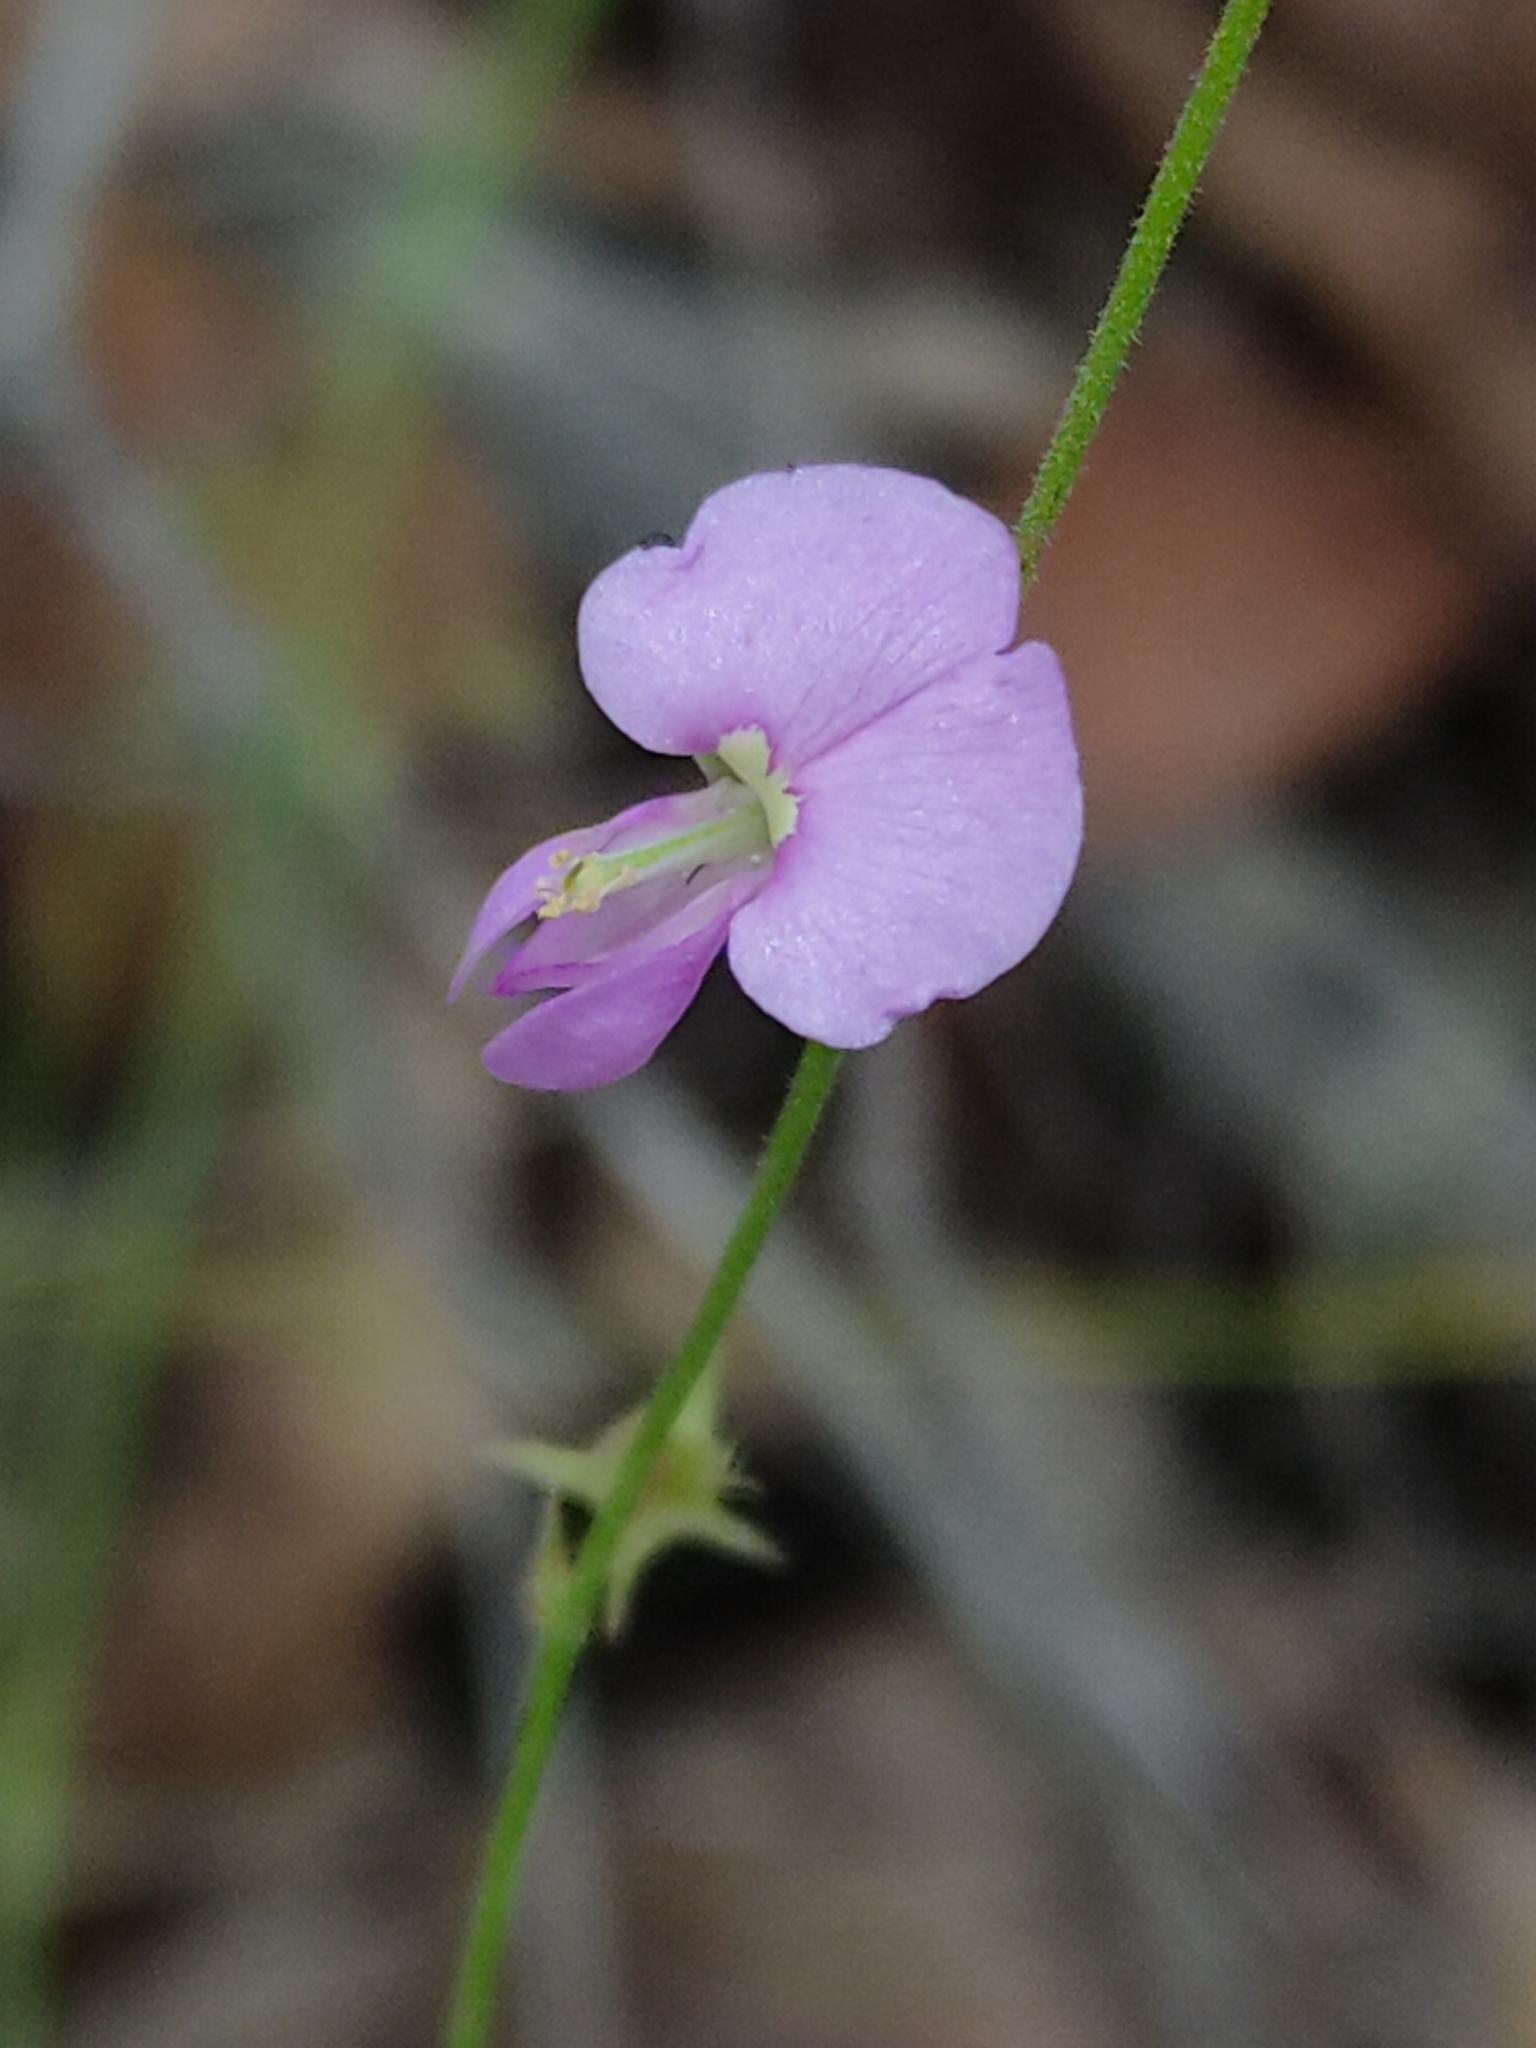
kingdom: Plantae
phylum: Tracheophyta
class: Magnoliopsida
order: Fabales
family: Fabaceae
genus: Maekawaea
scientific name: Maekawaea rhytidophylla
